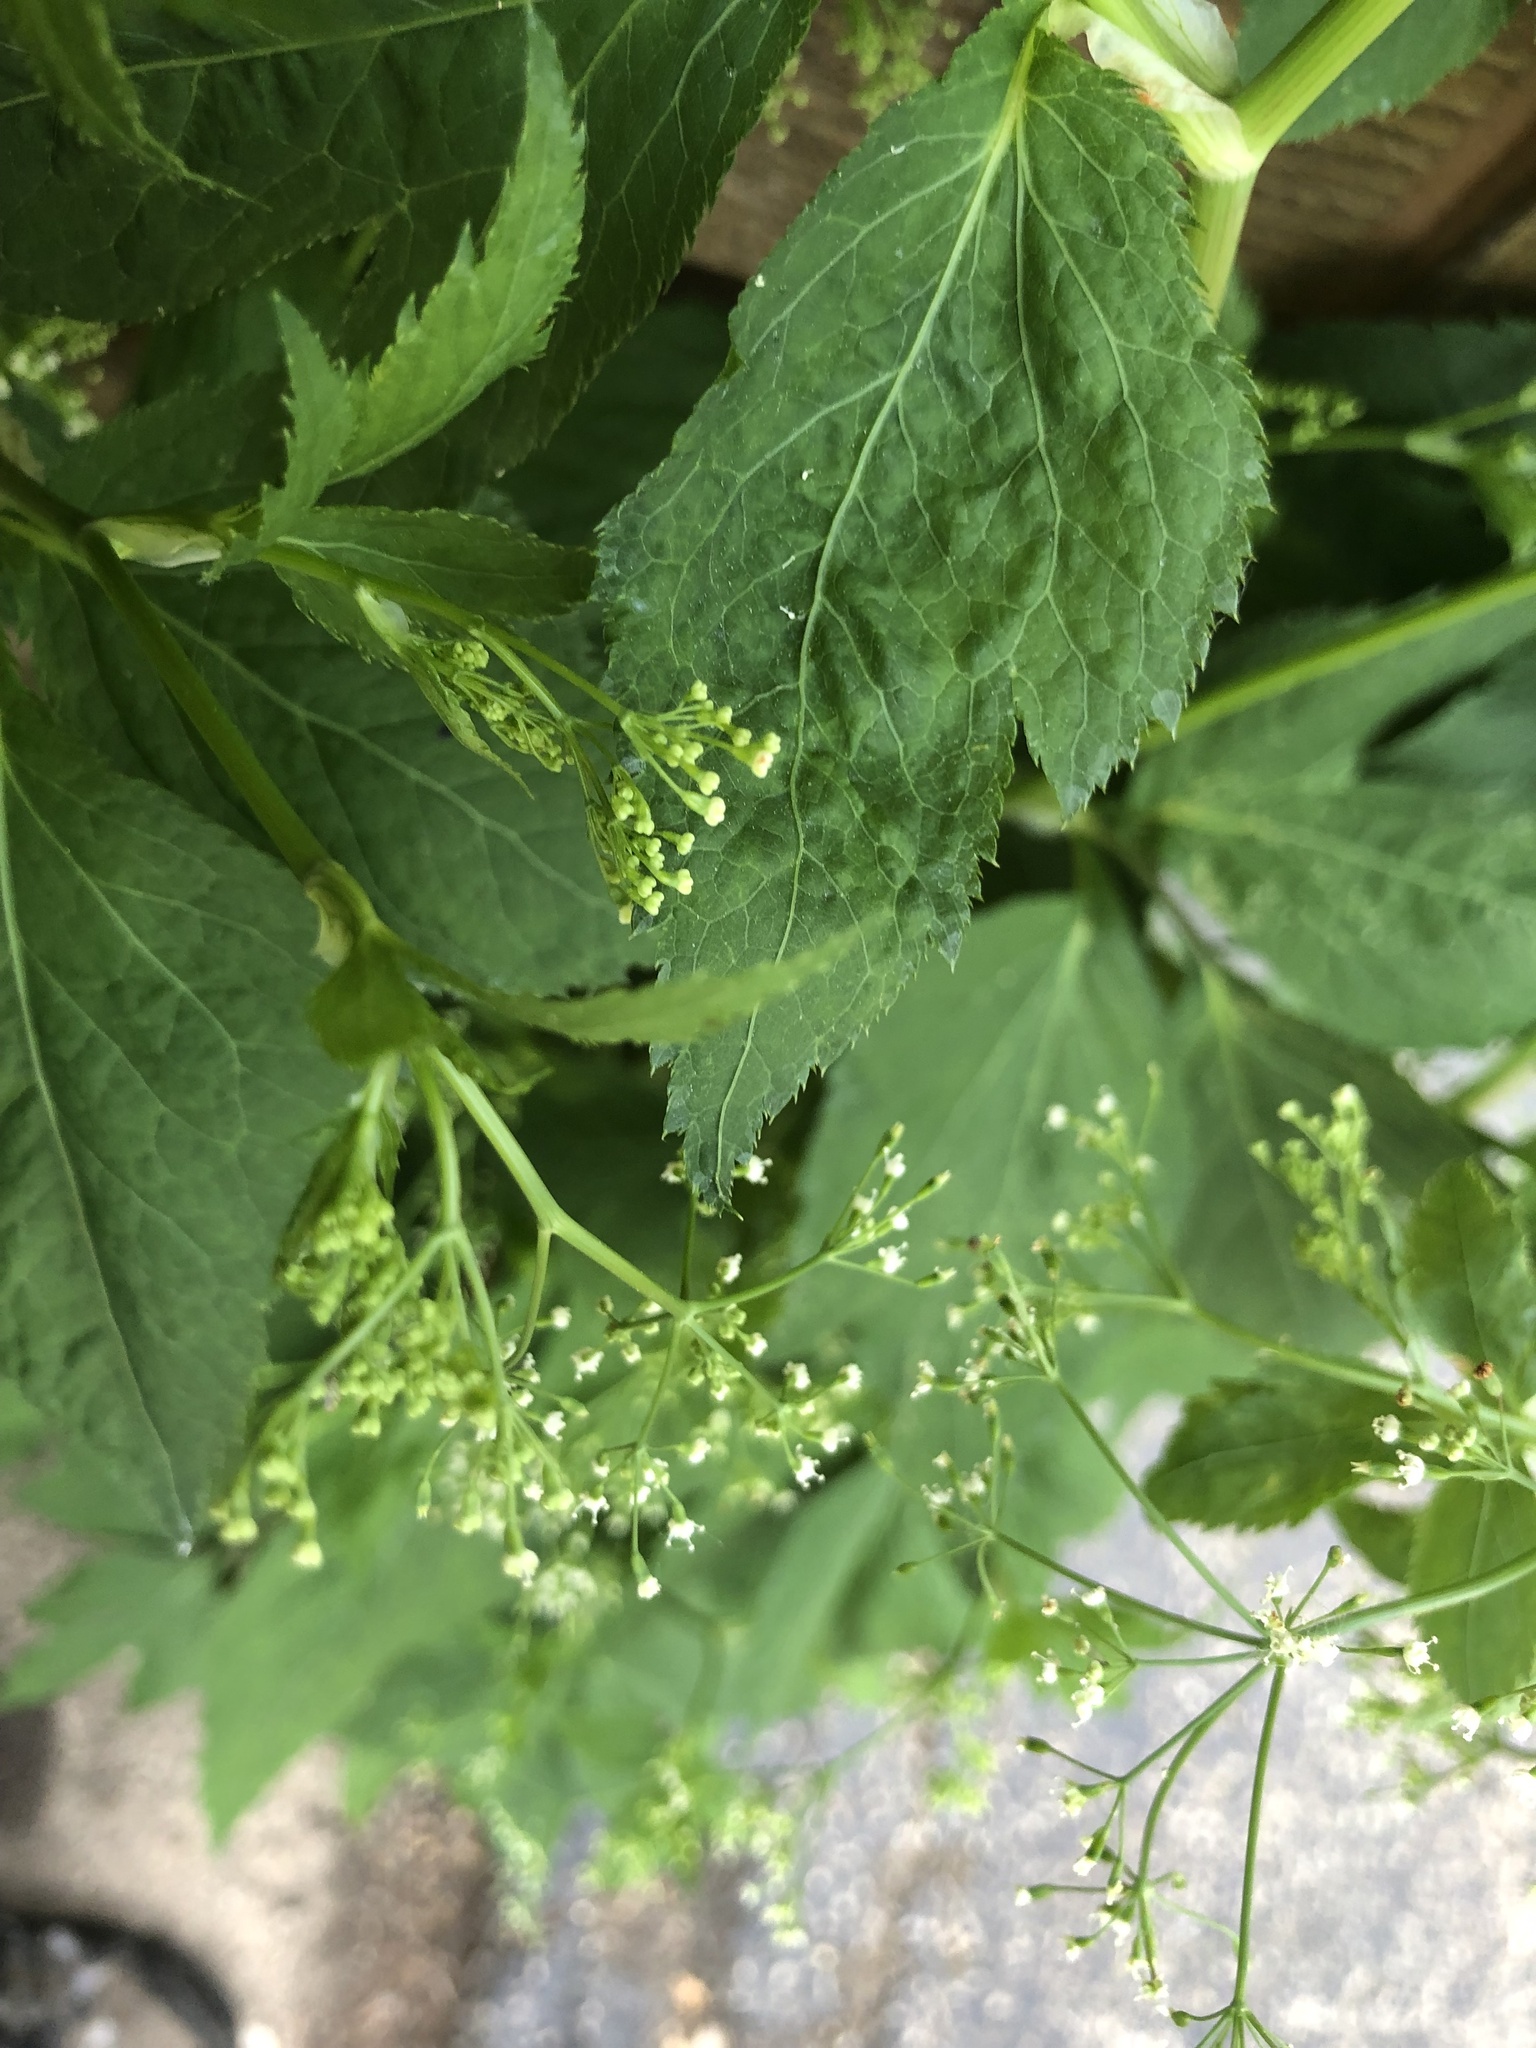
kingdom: Plantae
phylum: Tracheophyta
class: Magnoliopsida
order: Apiales
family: Apiaceae
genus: Cryptotaenia
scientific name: Cryptotaenia canadensis
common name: Honewort
